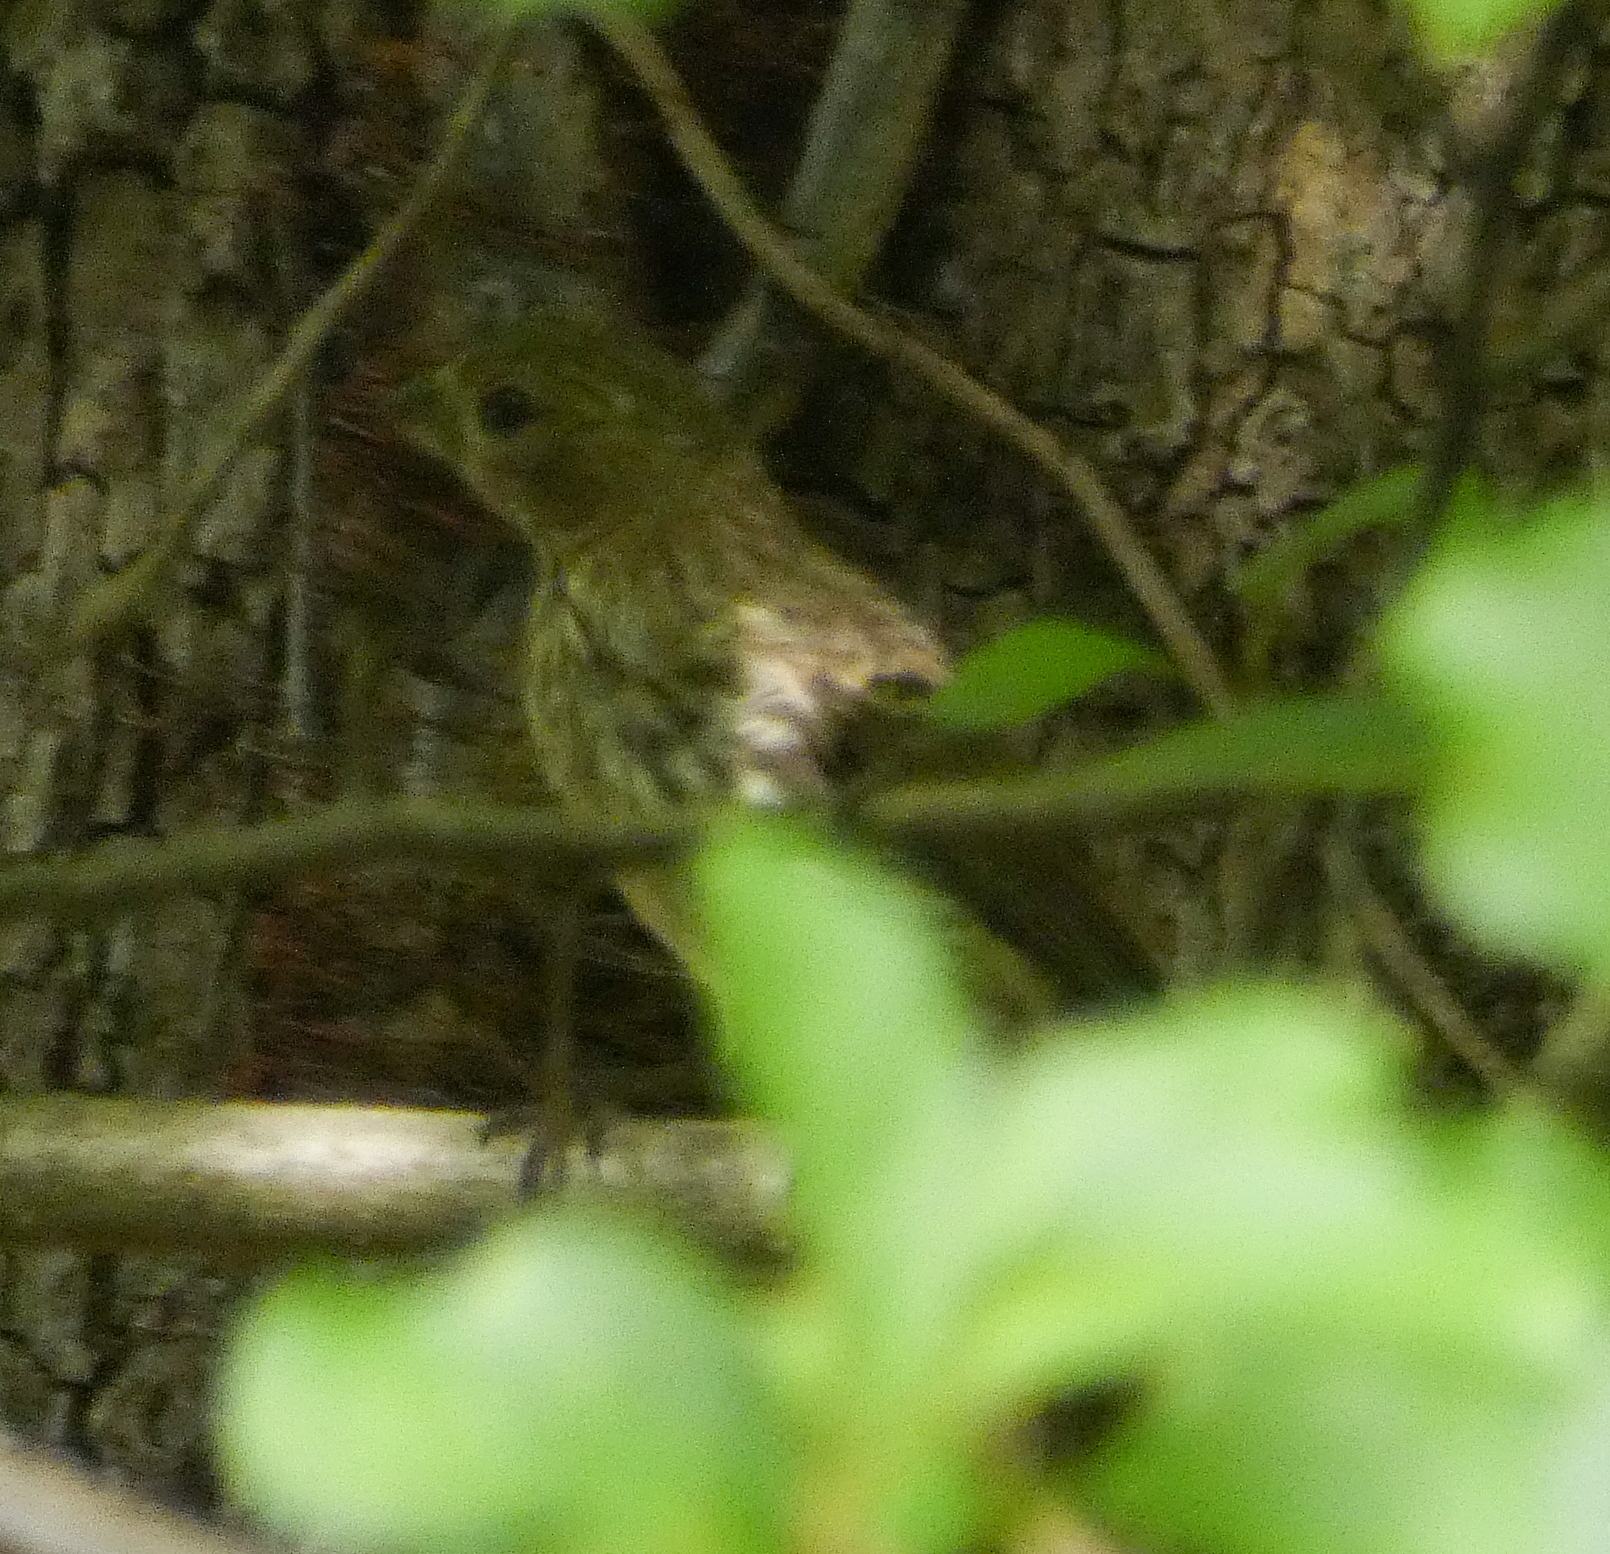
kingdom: Animalia
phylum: Chordata
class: Aves
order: Passeriformes
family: Fringillidae
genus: Haemorhous
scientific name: Haemorhous mexicanus
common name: House finch
